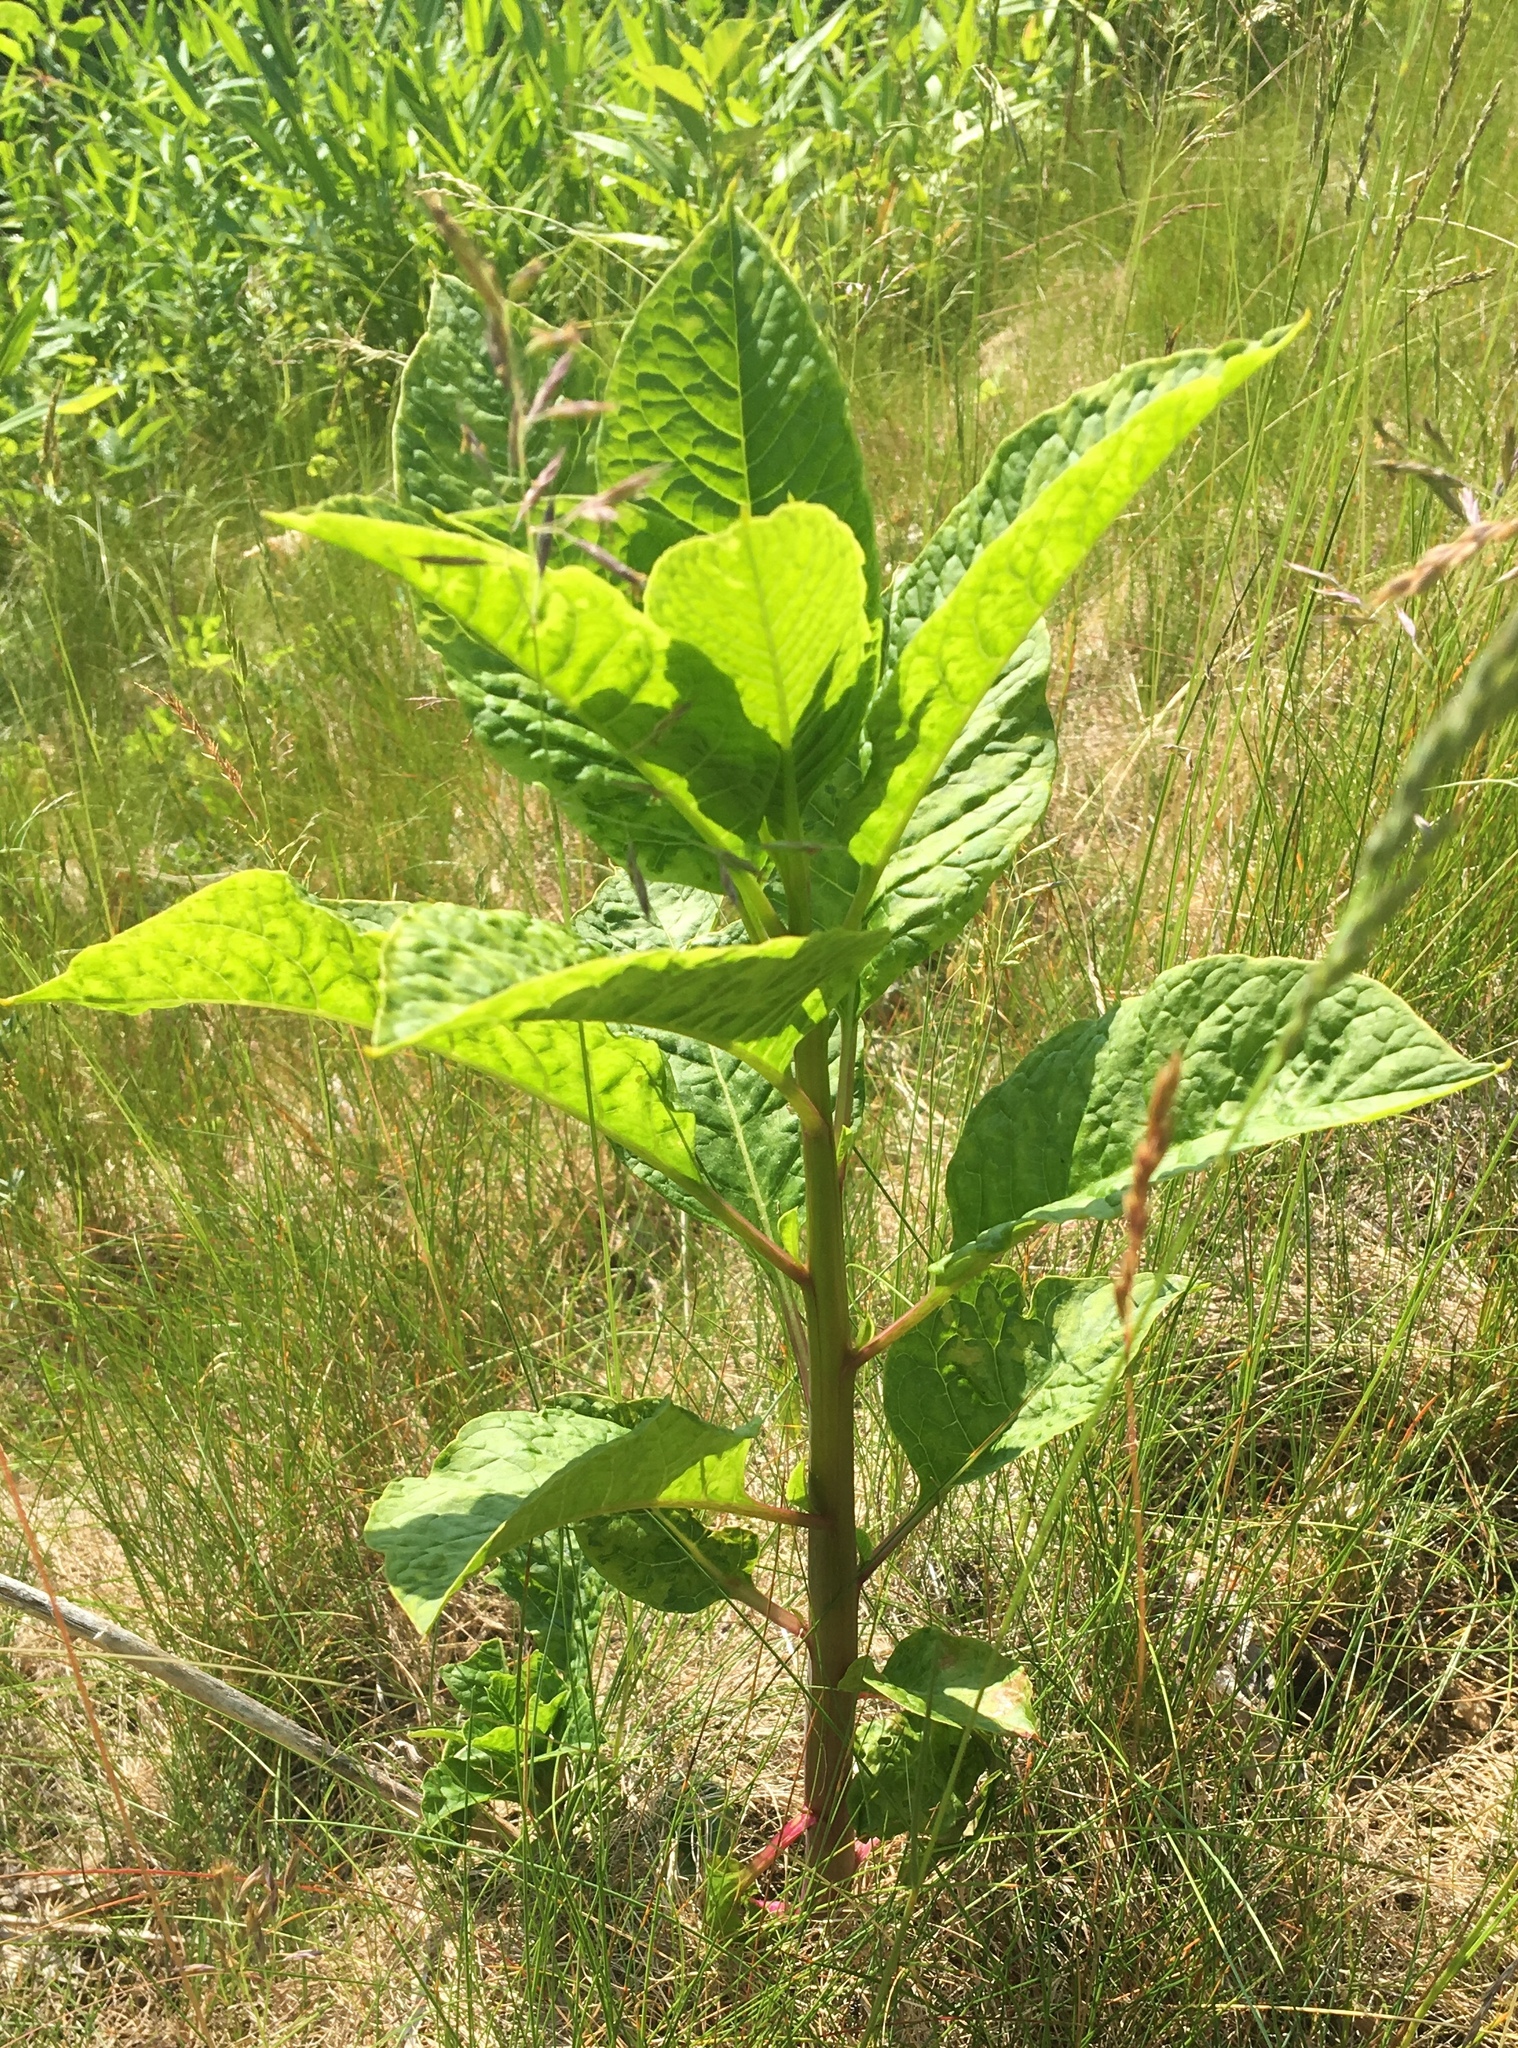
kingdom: Plantae
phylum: Tracheophyta
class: Magnoliopsida
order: Caryophyllales
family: Phytolaccaceae
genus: Phytolacca
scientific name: Phytolacca americana
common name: American pokeweed
